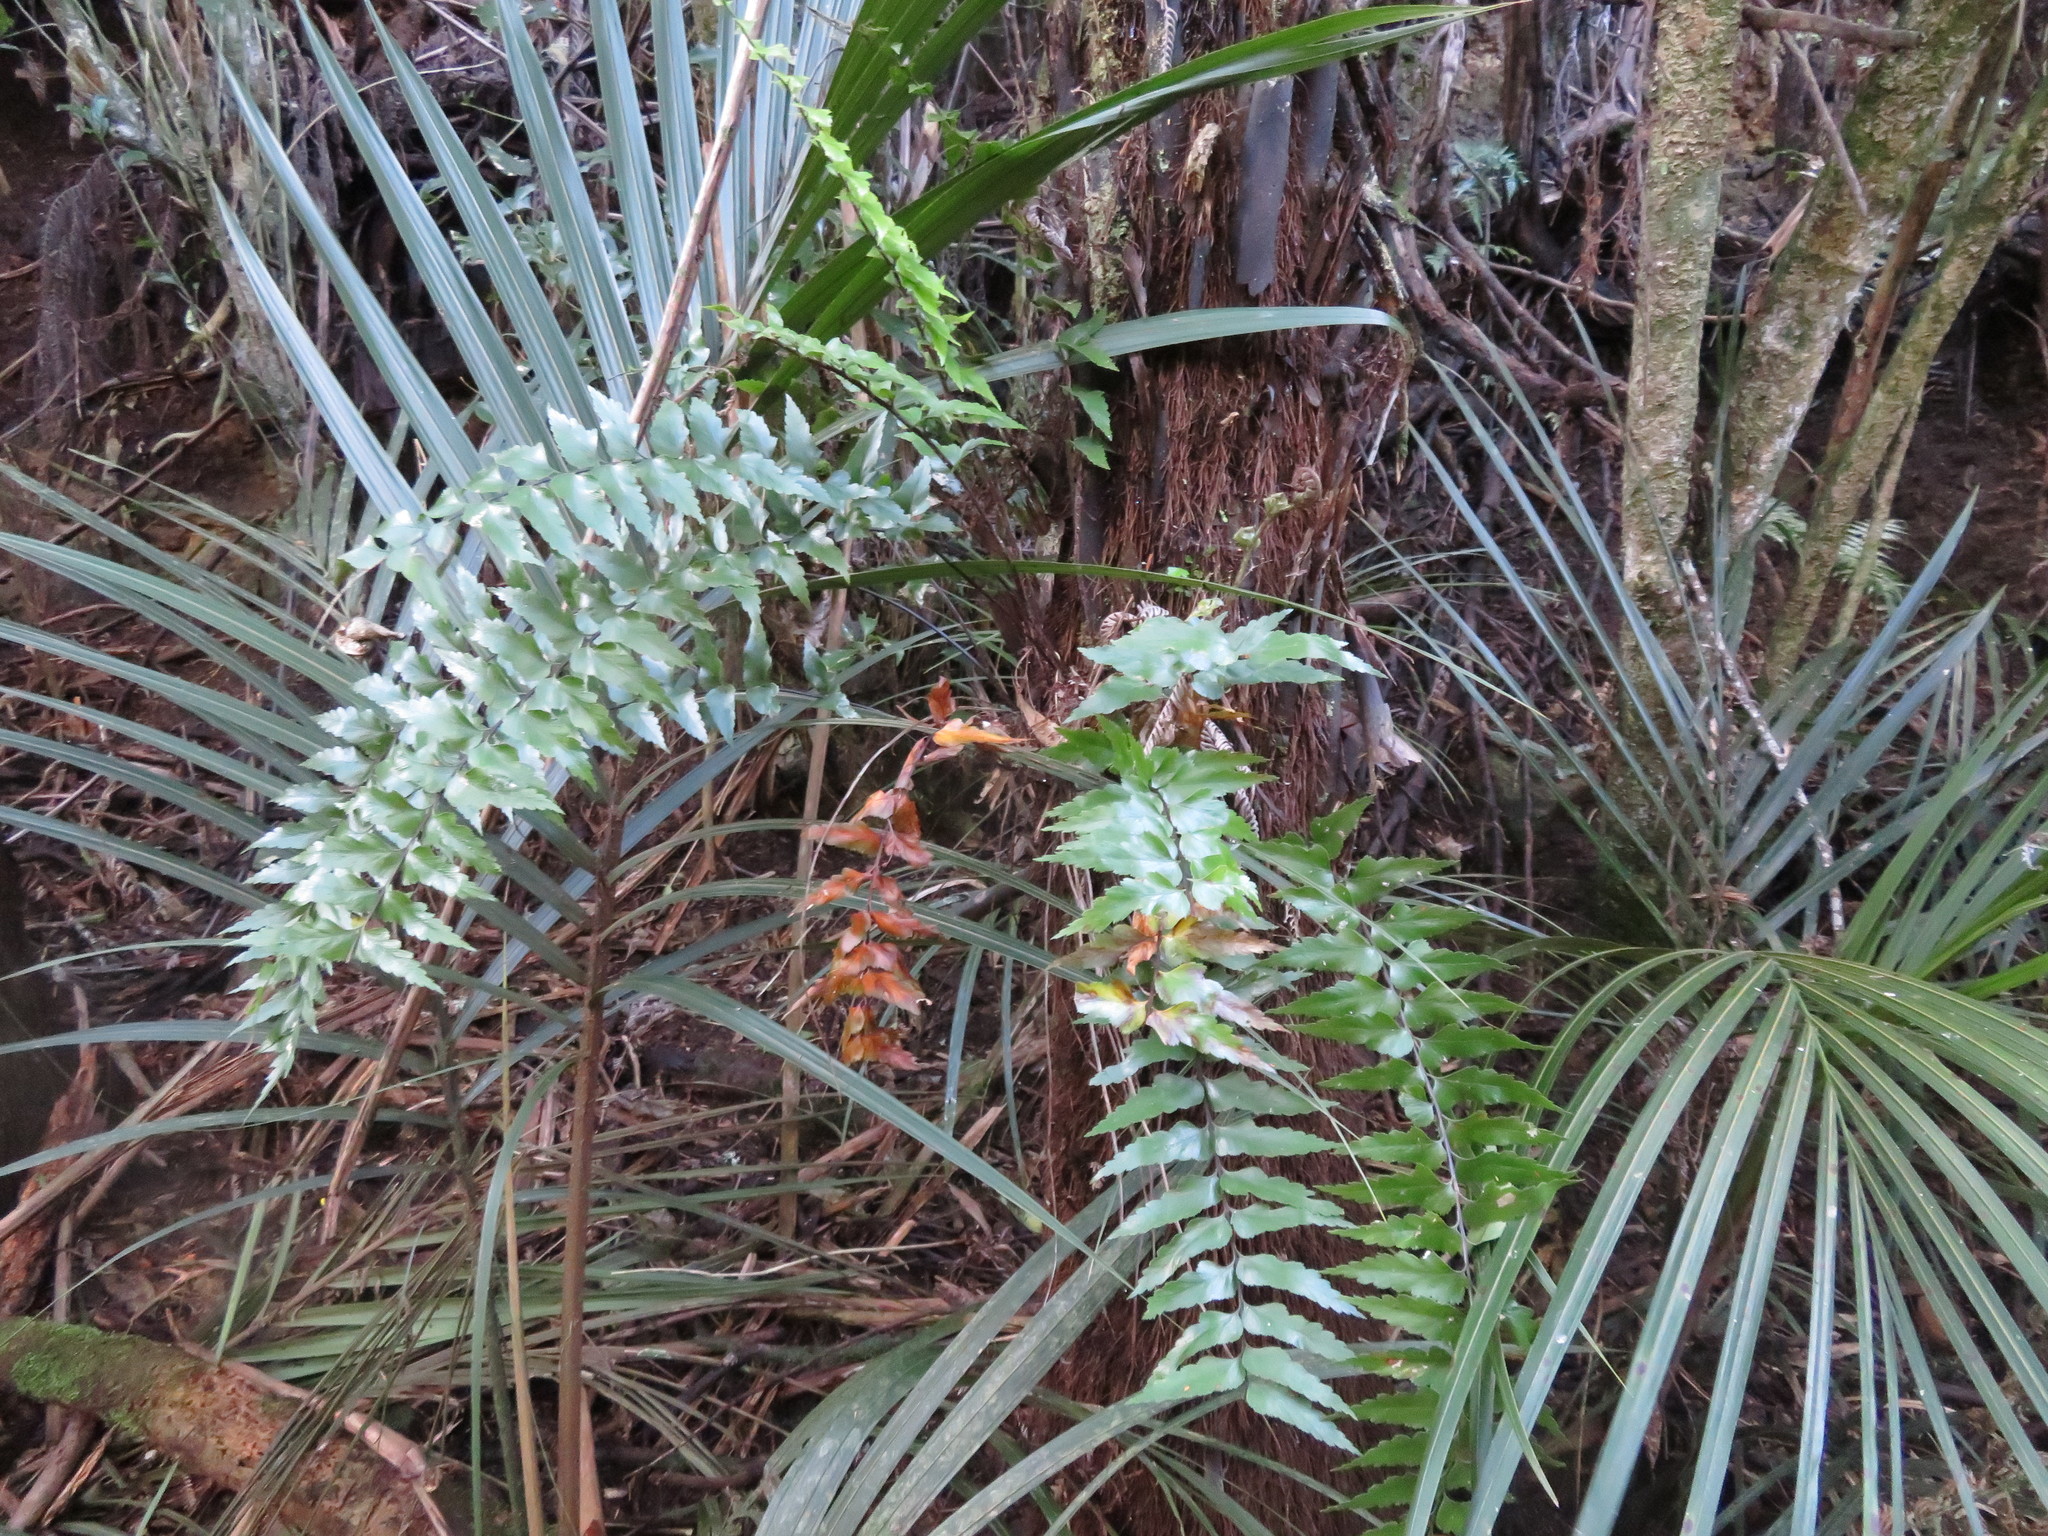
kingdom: Plantae
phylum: Tracheophyta
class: Polypodiopsida
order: Polypodiales
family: Aspleniaceae
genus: Asplenium
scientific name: Asplenium polyodon
